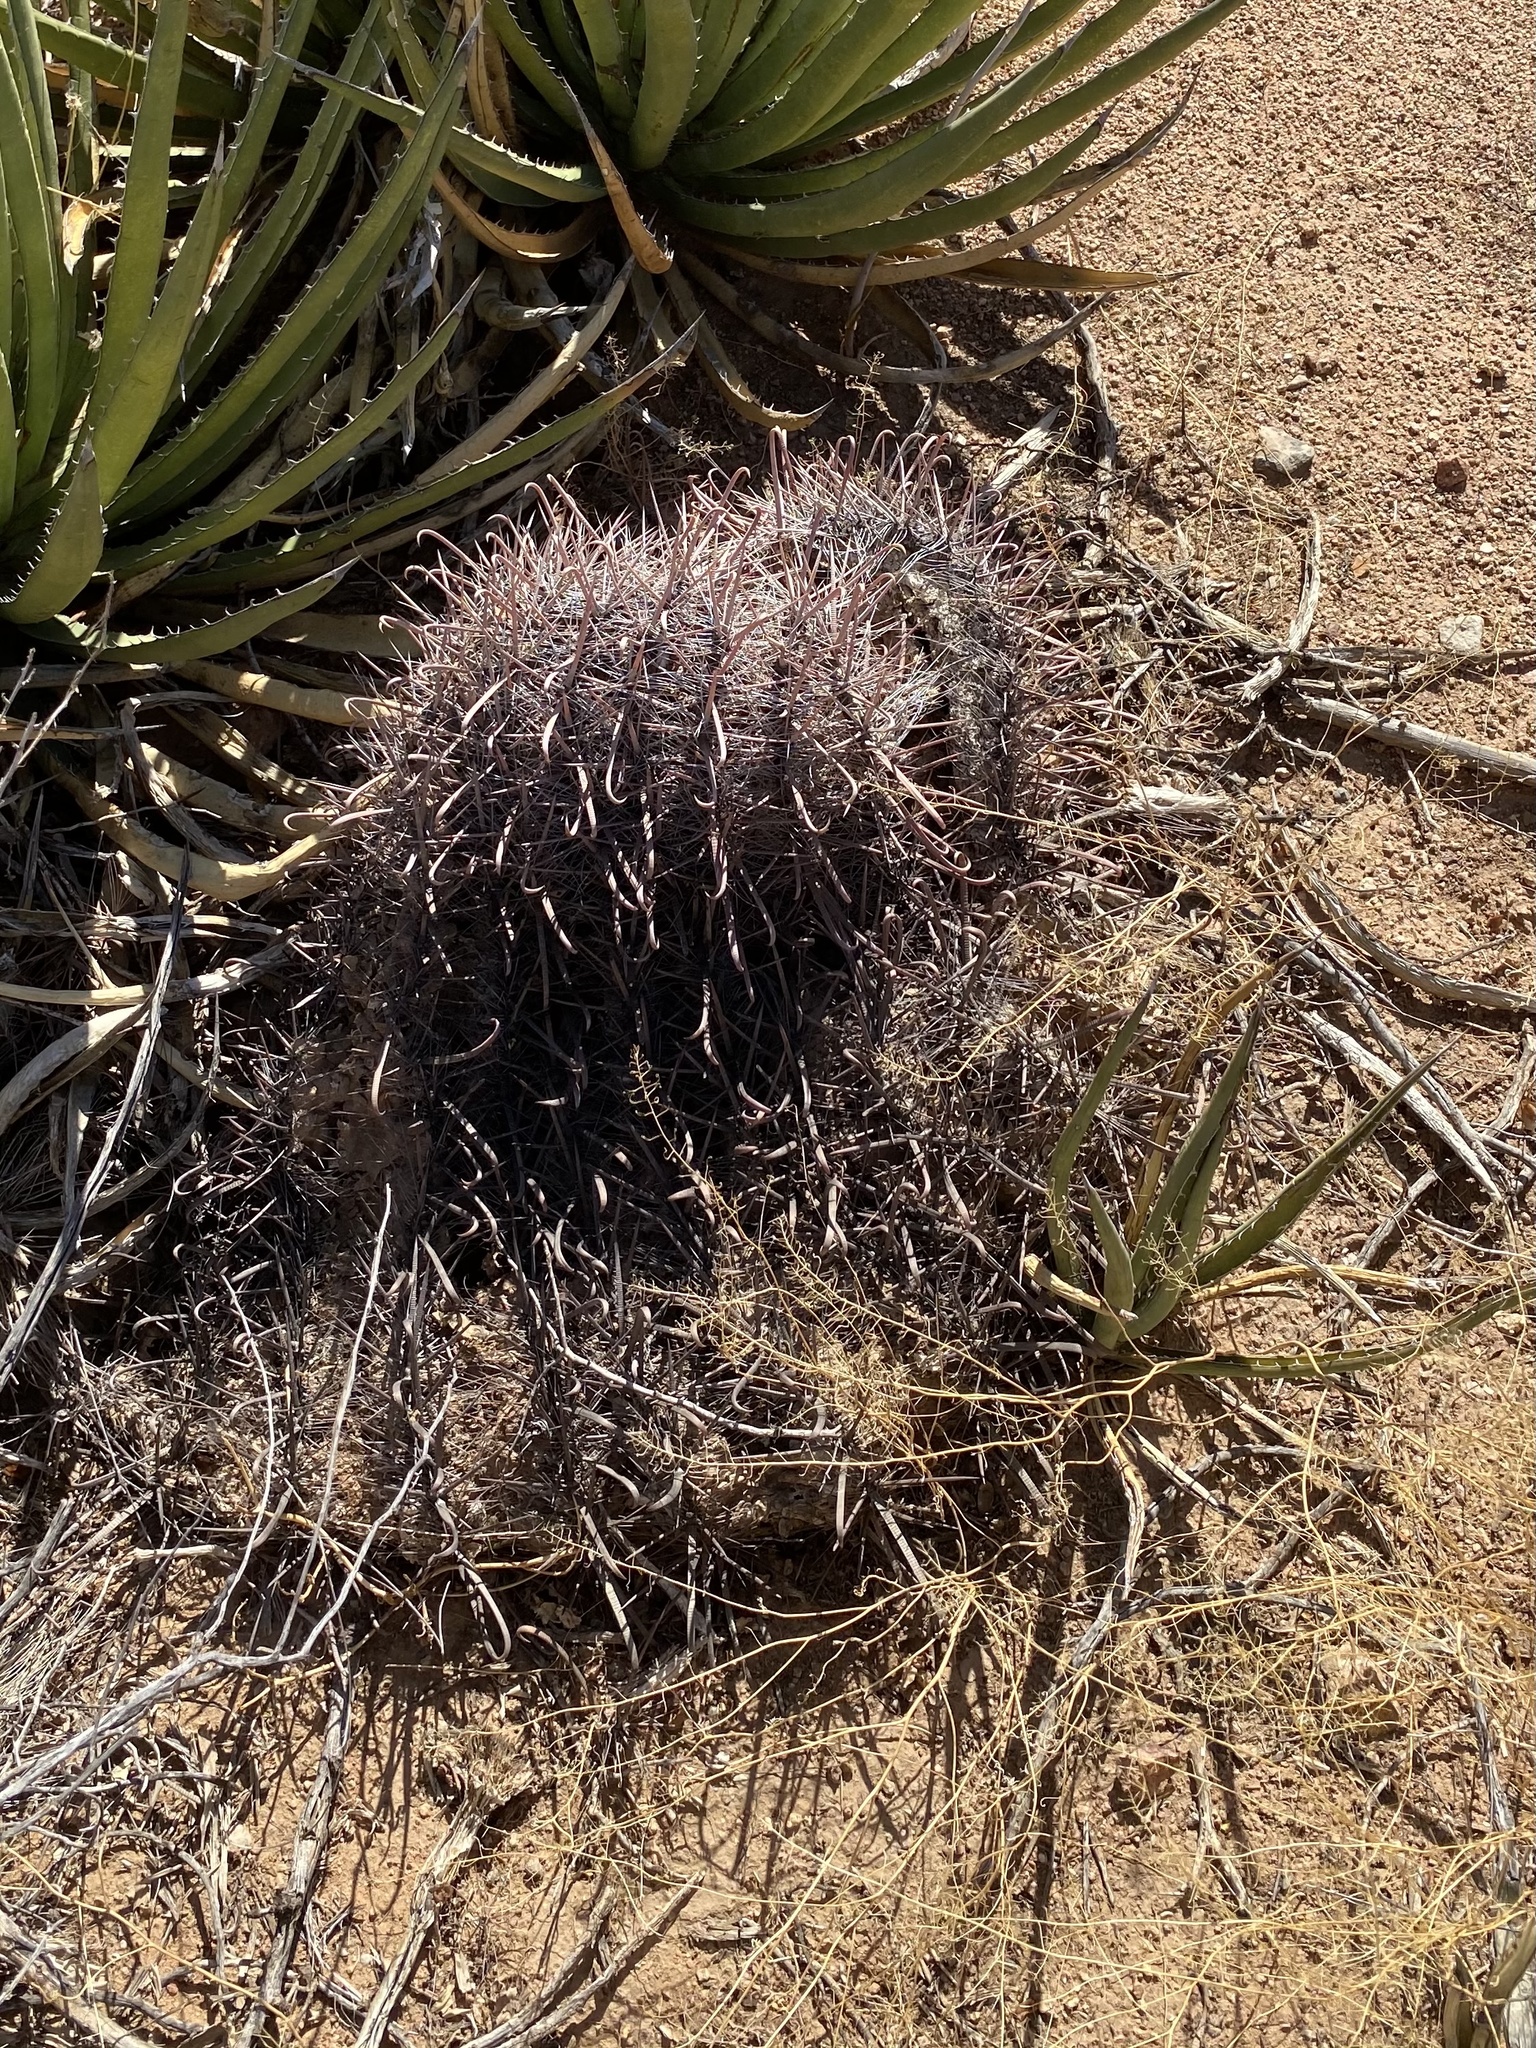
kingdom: Plantae
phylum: Tracheophyta
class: Magnoliopsida
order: Caryophyllales
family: Cactaceae
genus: Ferocactus
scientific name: Ferocactus wislizeni
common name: Candy barrel cactus
